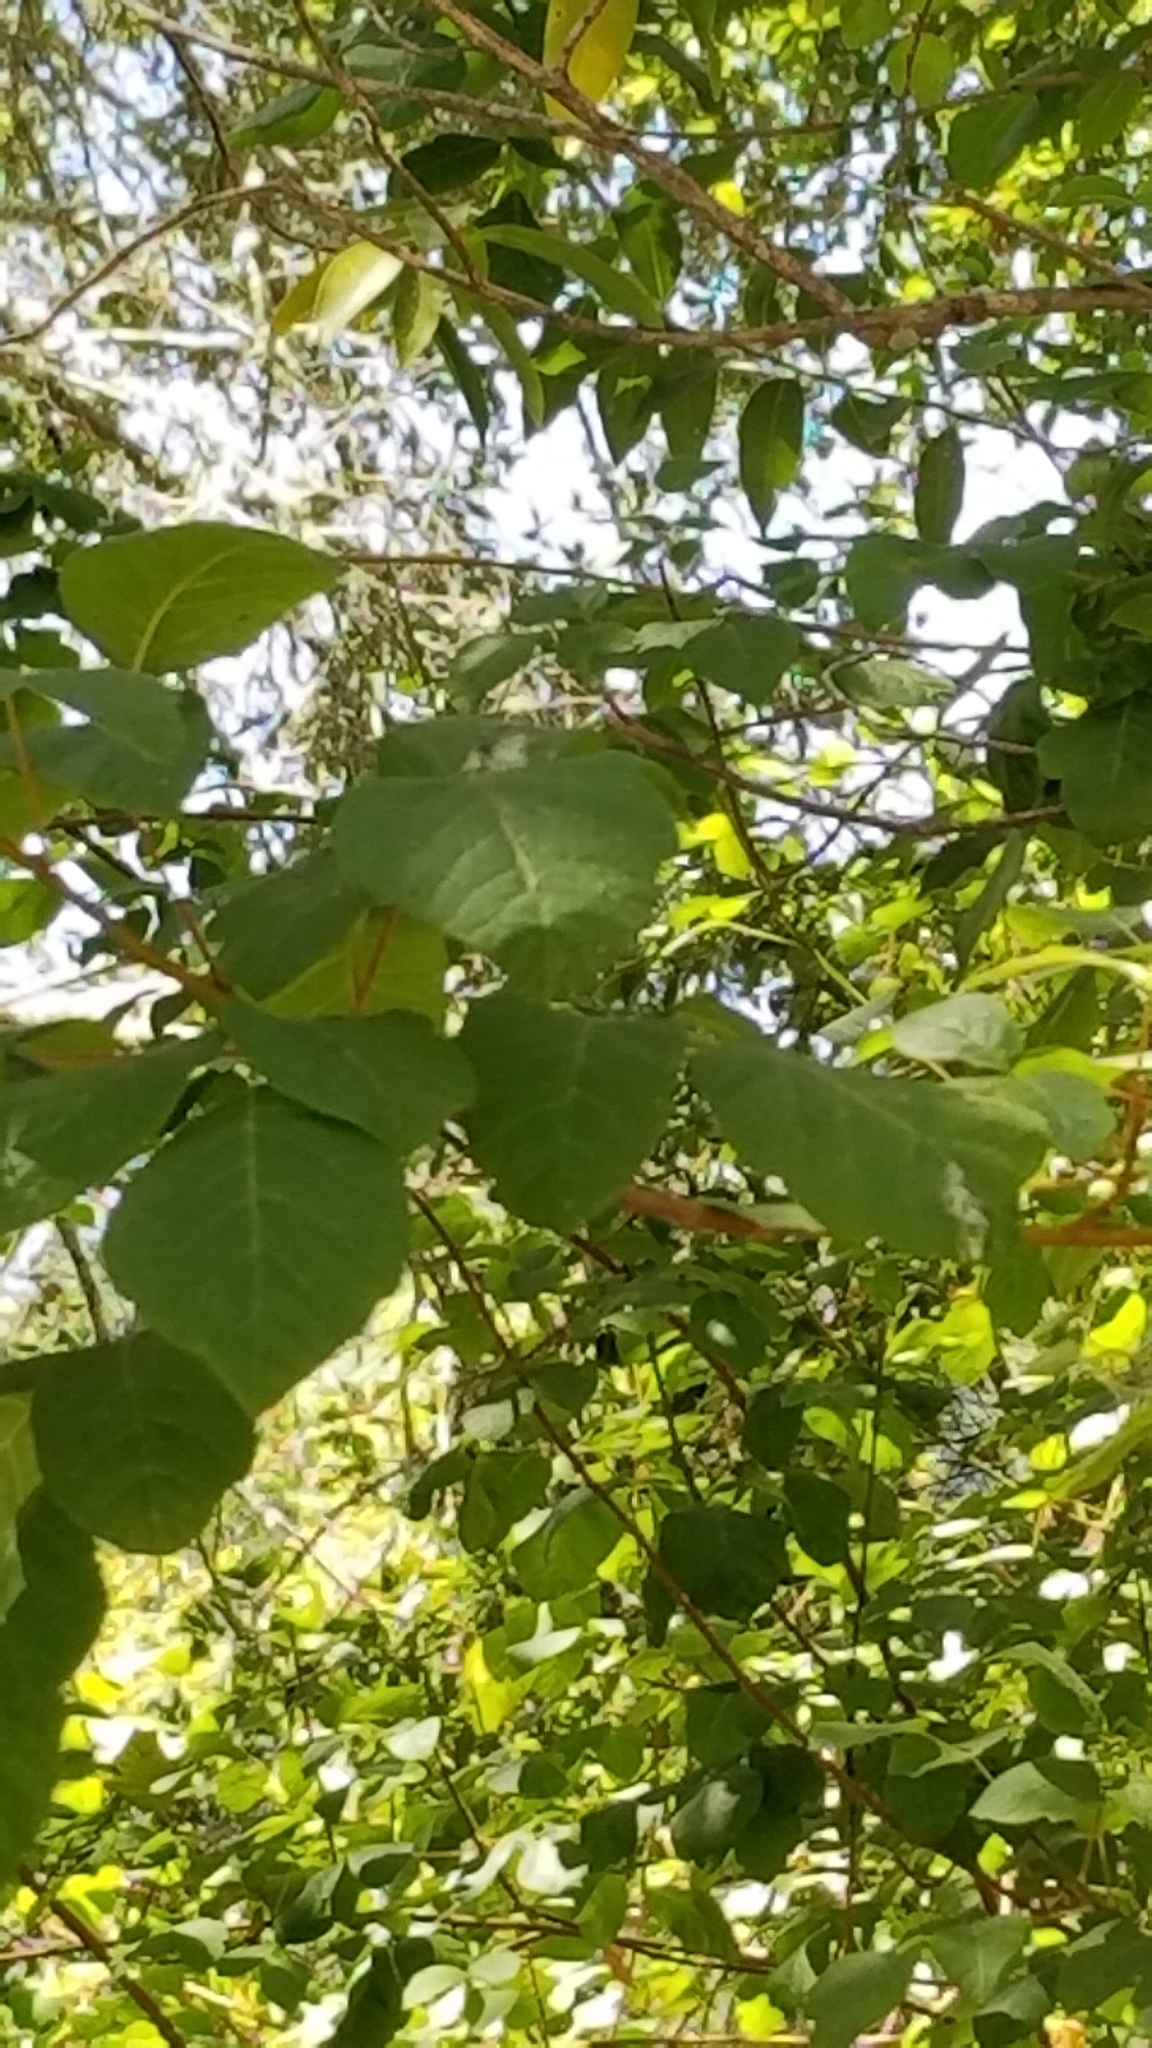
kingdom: Plantae
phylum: Tracheophyta
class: Magnoliopsida
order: Sapindales
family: Anacardiaceae
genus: Toxicodendron
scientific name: Toxicodendron diversilobum
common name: Pacific poison-oak
